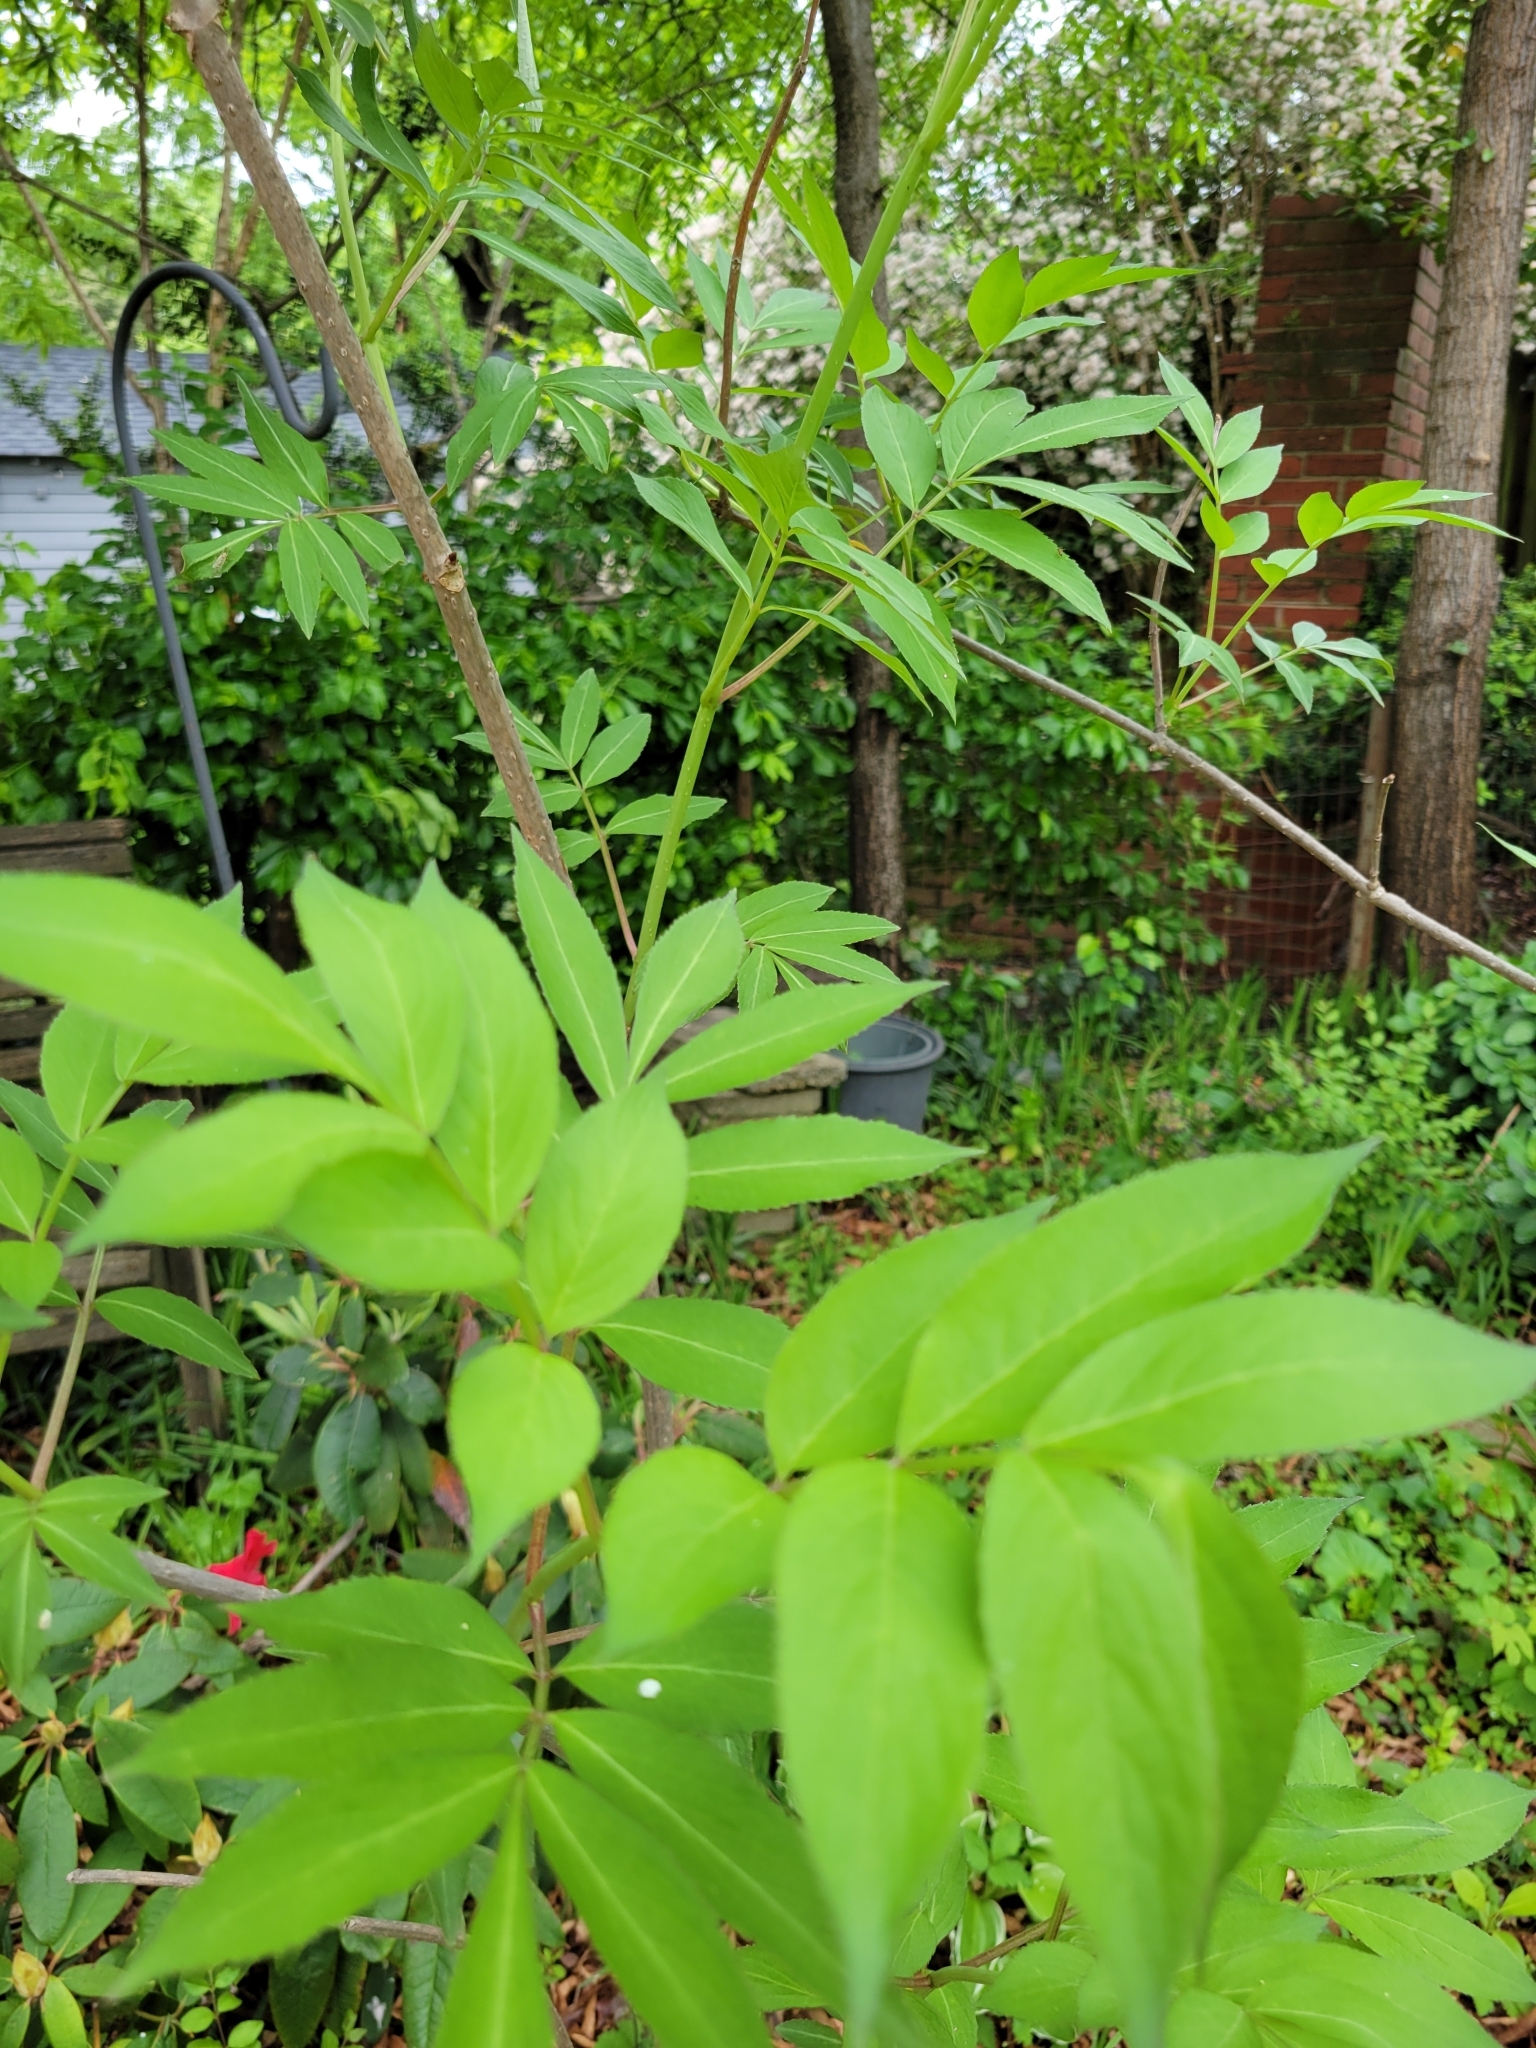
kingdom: Plantae
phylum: Tracheophyta
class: Magnoliopsida
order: Dipsacales
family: Viburnaceae
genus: Sambucus
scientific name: Sambucus canadensis
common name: American elder
